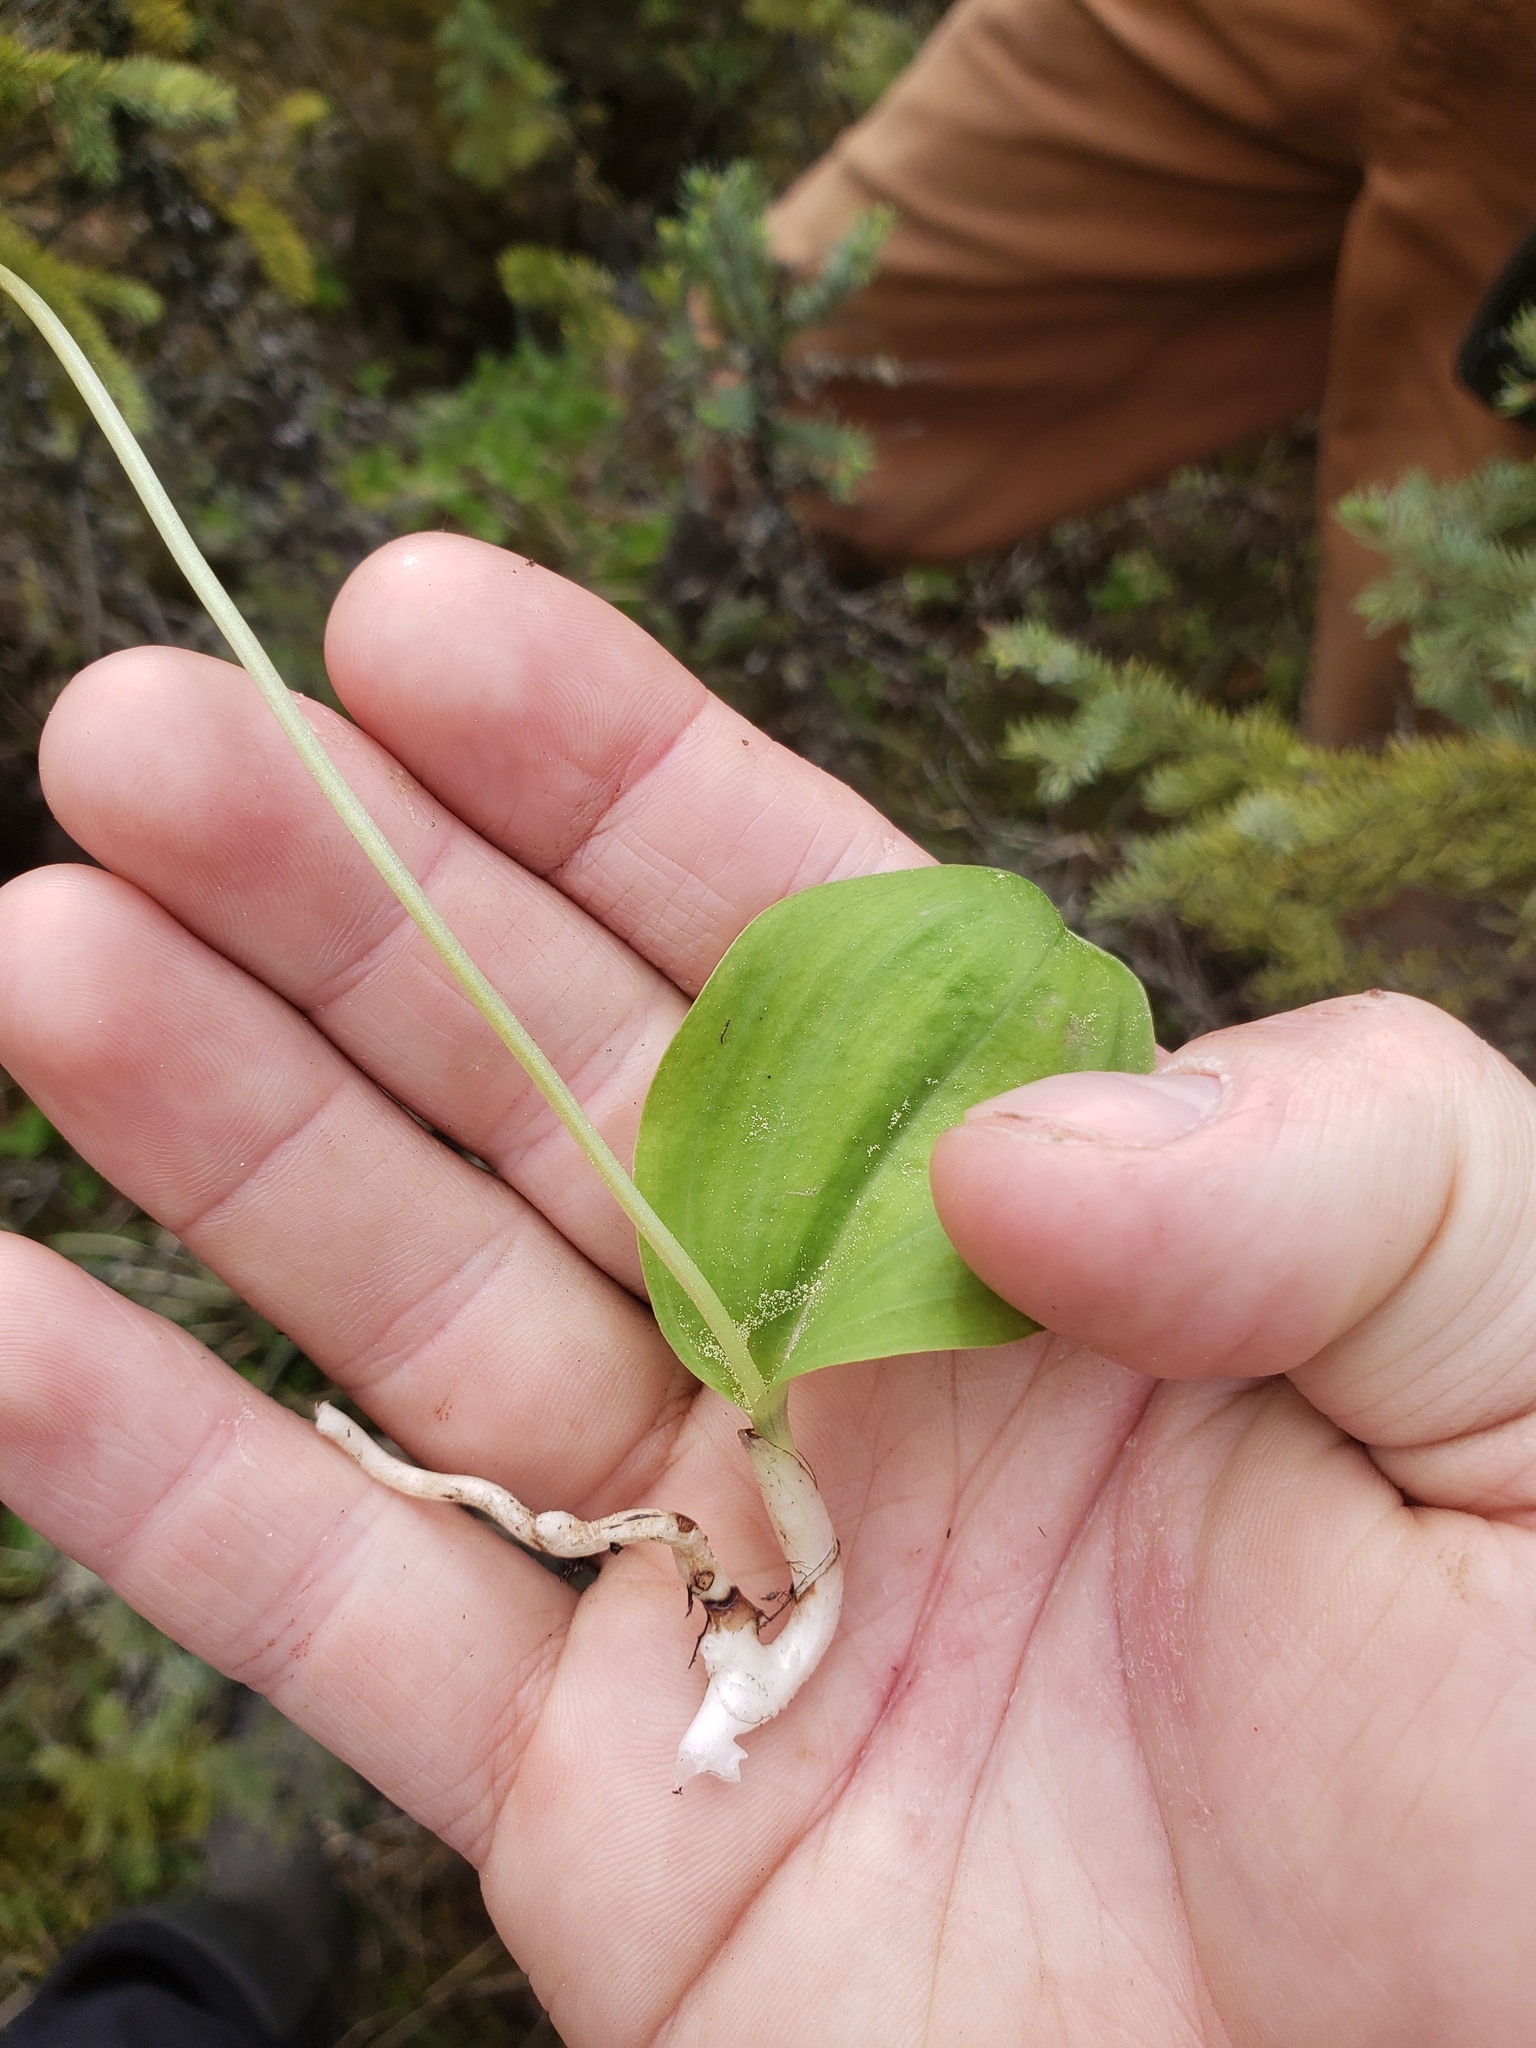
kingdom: Plantae
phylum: Tracheophyta
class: Liliopsida
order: Asparagales
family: Orchidaceae
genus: Galearis
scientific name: Galearis rotundifolia
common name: One-leaved orchis
